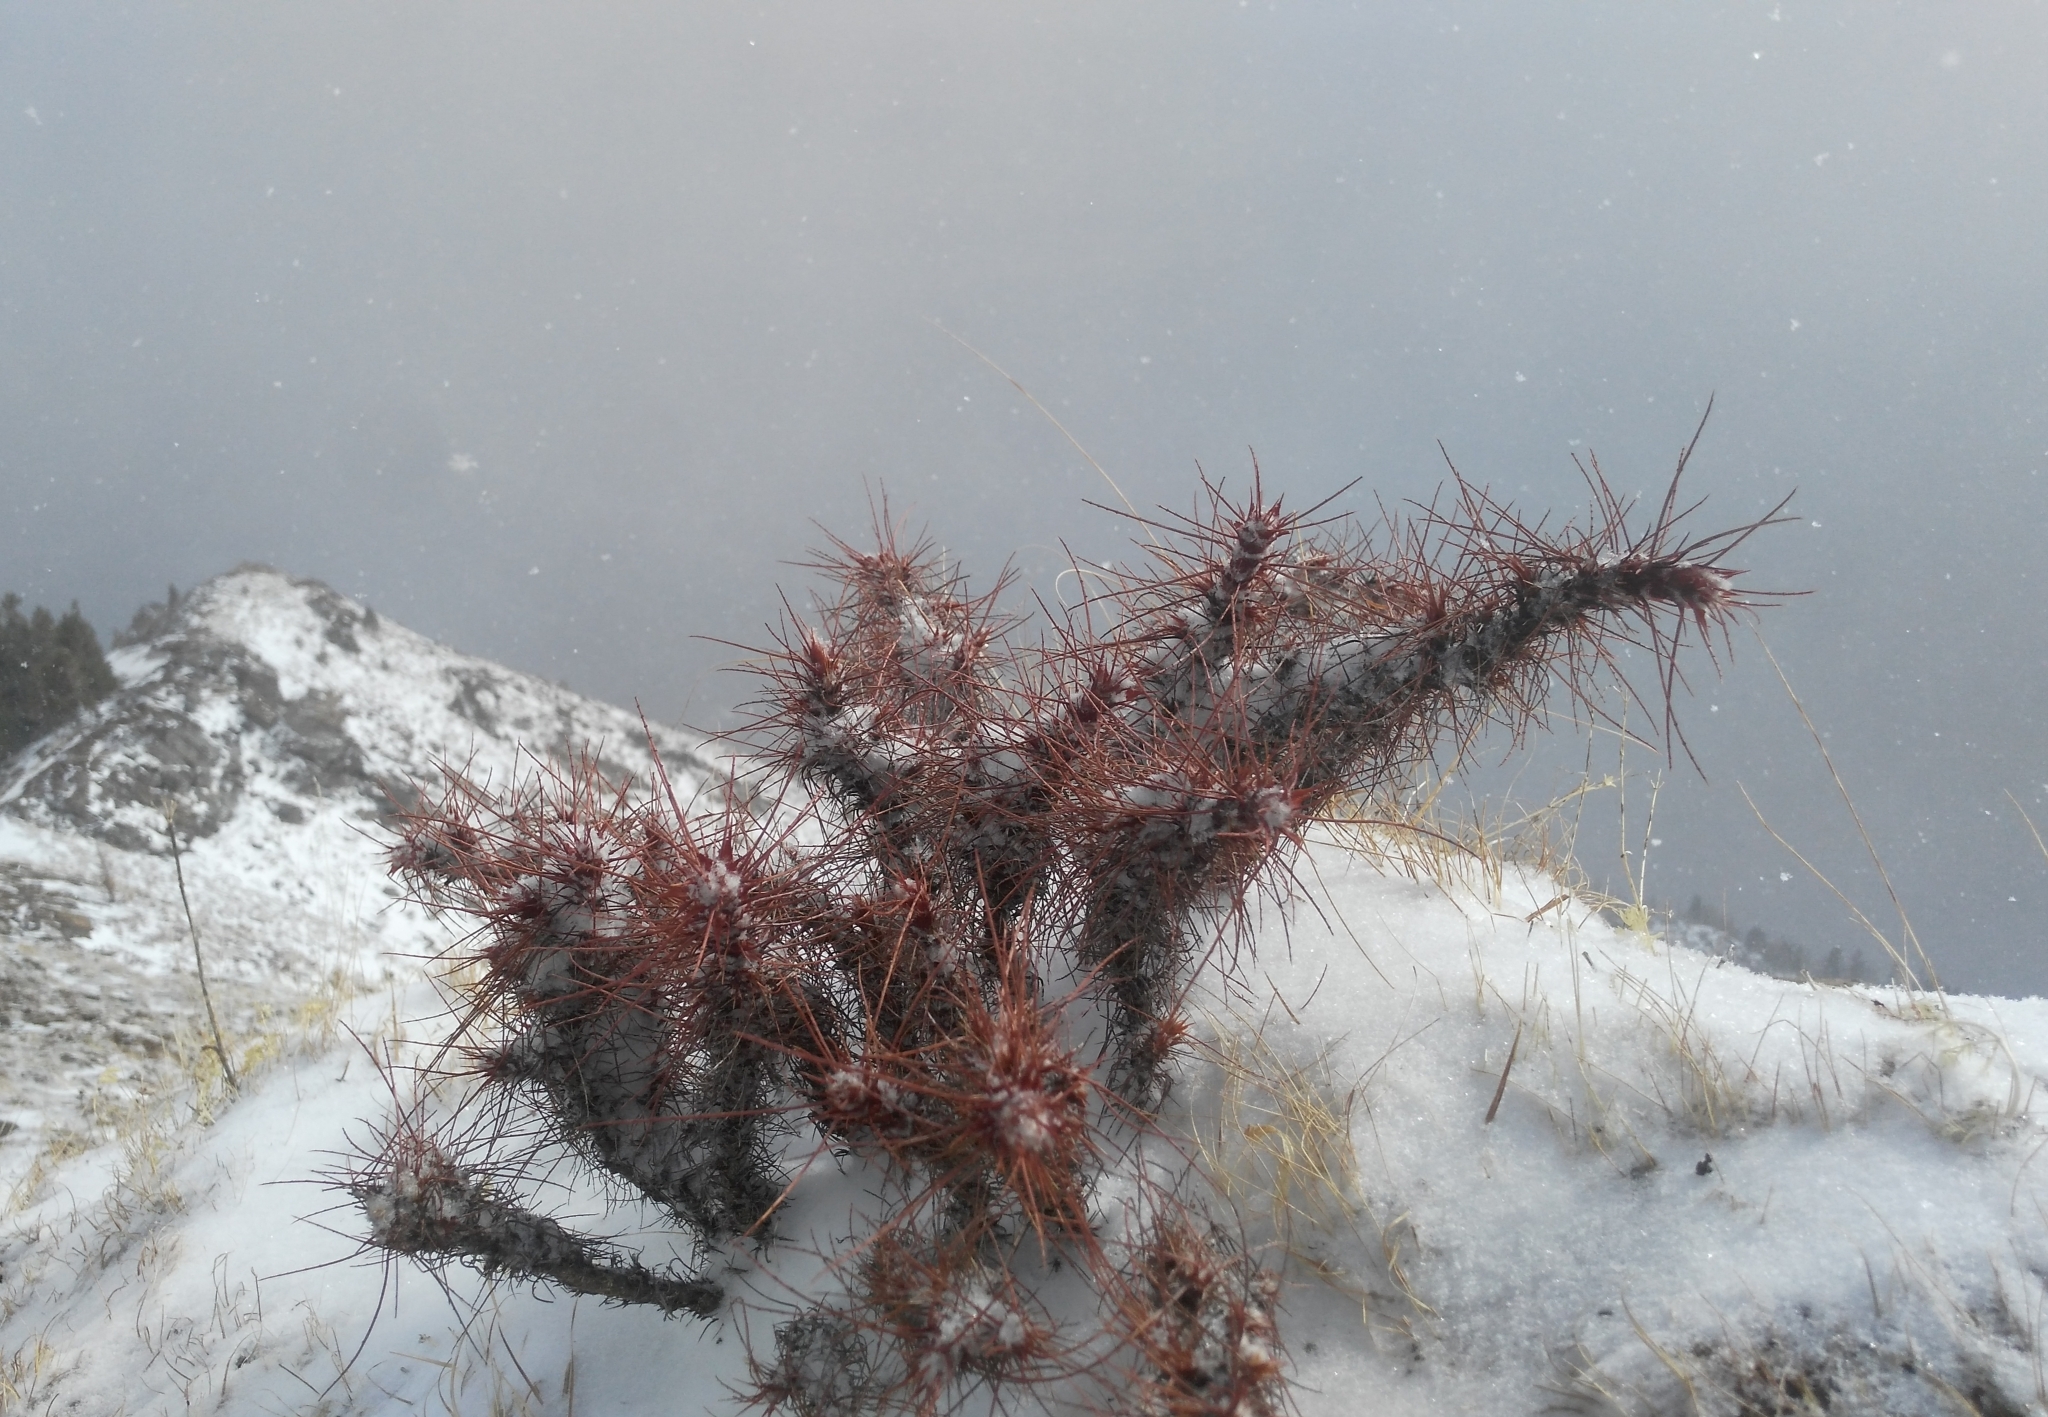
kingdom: Plantae
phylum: Tracheophyta
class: Magnoliopsida
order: Fabales
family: Fabaceae
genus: Caragana
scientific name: Caragana jubata
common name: Shag-spine peashrub
